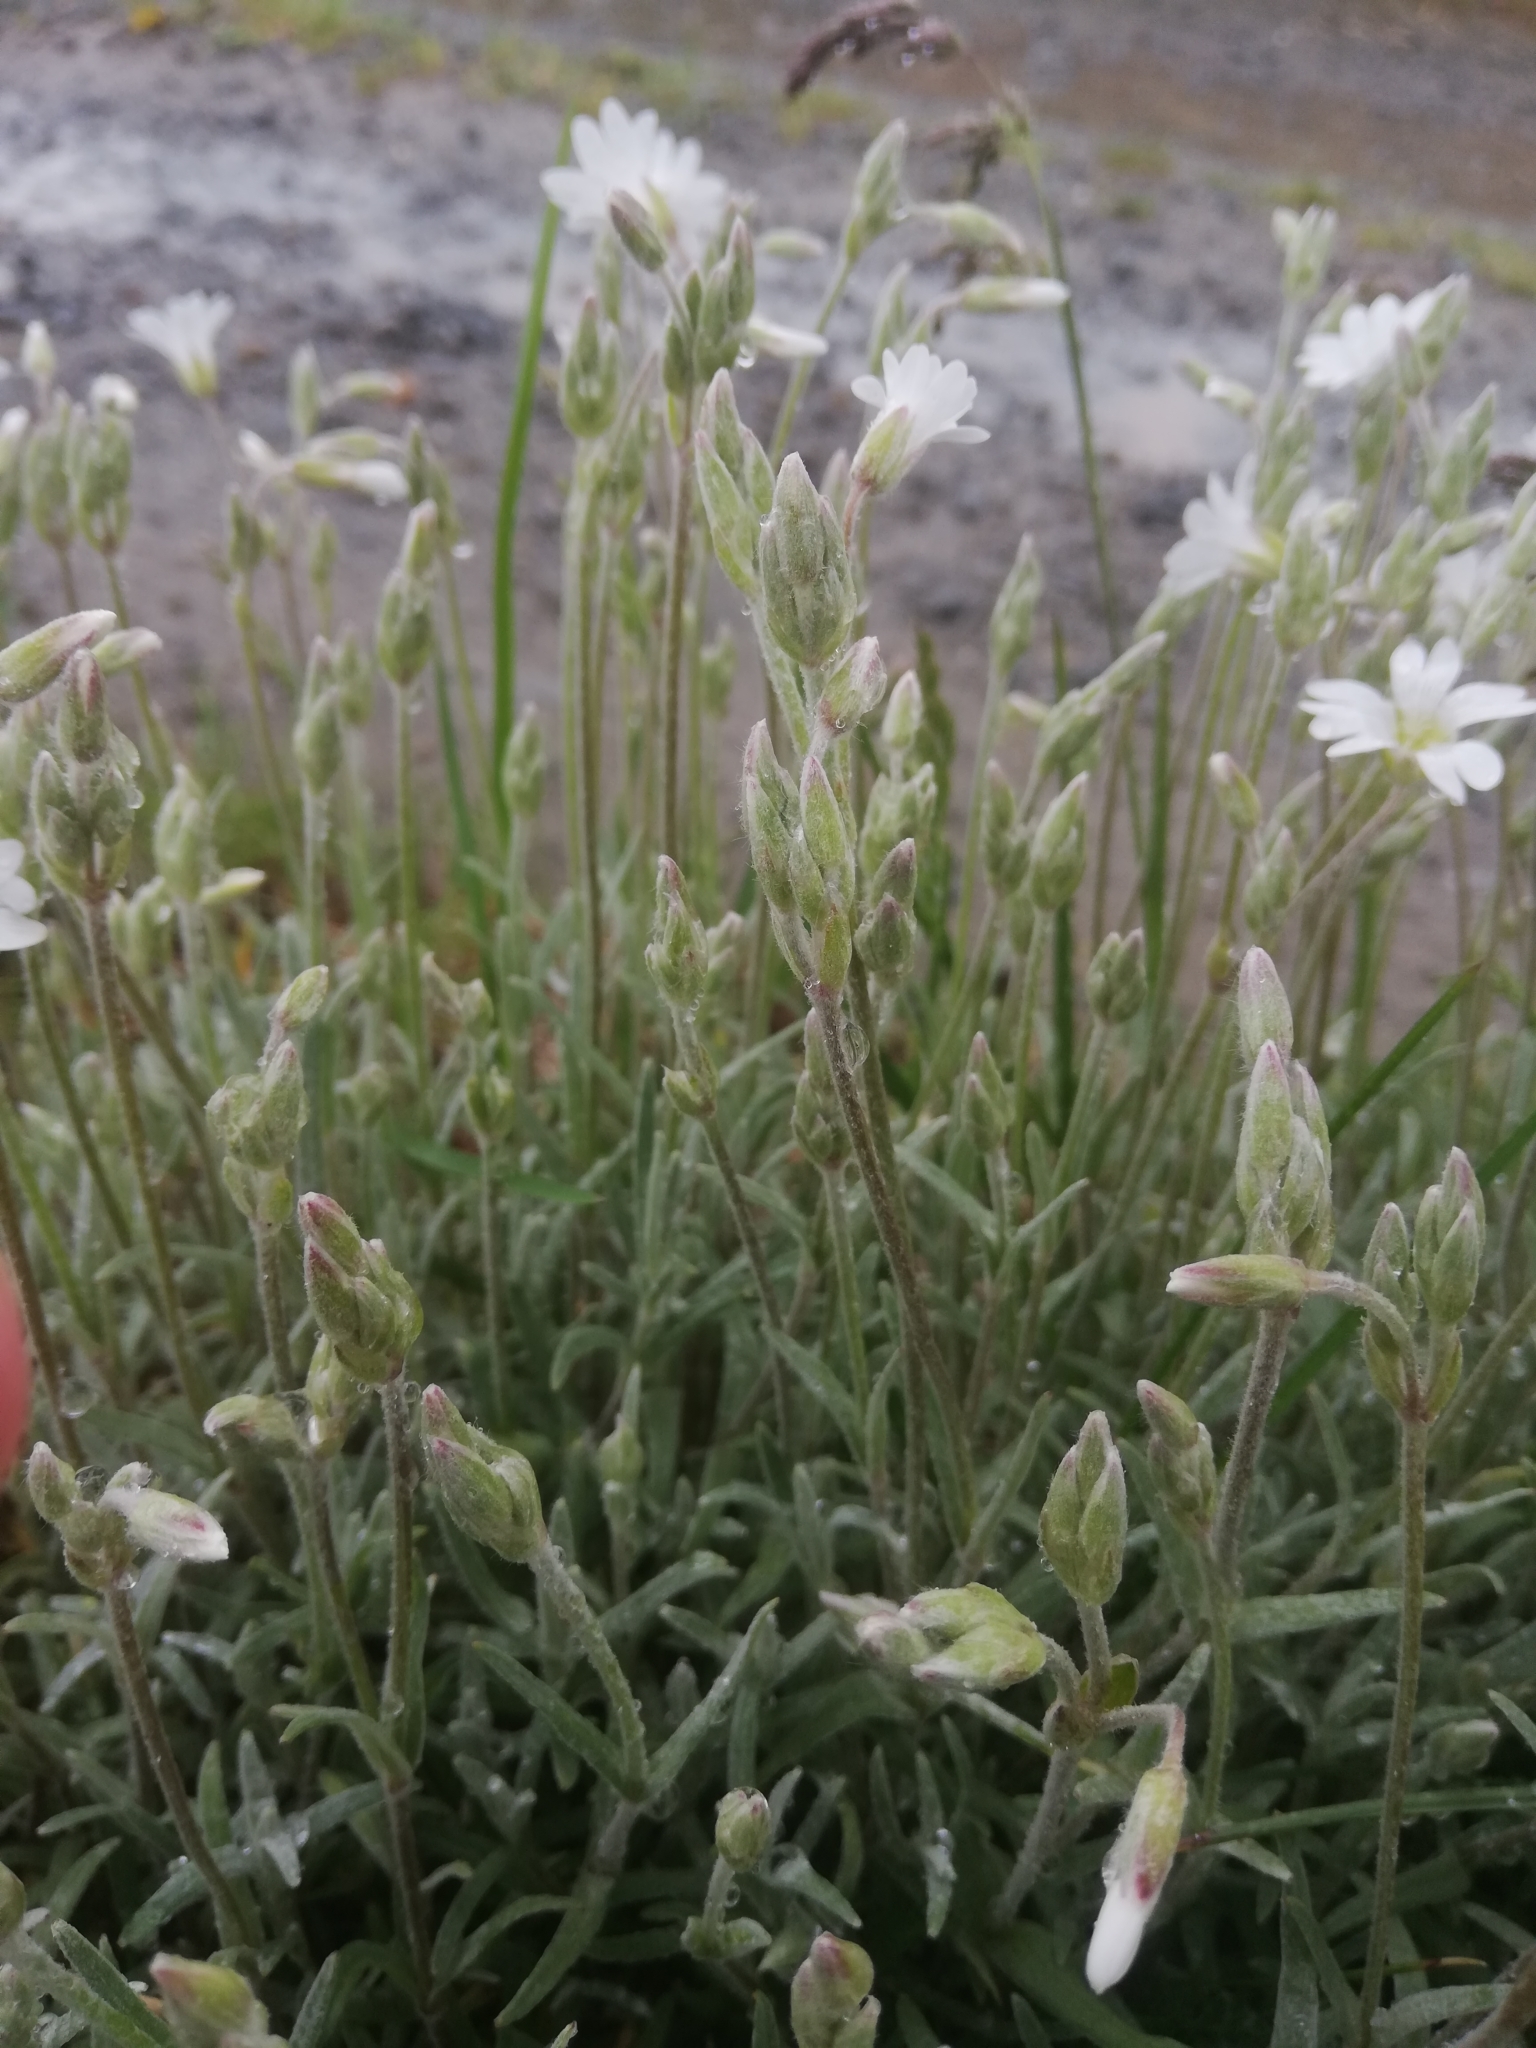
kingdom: Plantae
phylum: Tracheophyta
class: Magnoliopsida
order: Caryophyllales
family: Caryophyllaceae
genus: Cerastium
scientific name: Cerastium tomentosum
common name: Snow-in-summer
